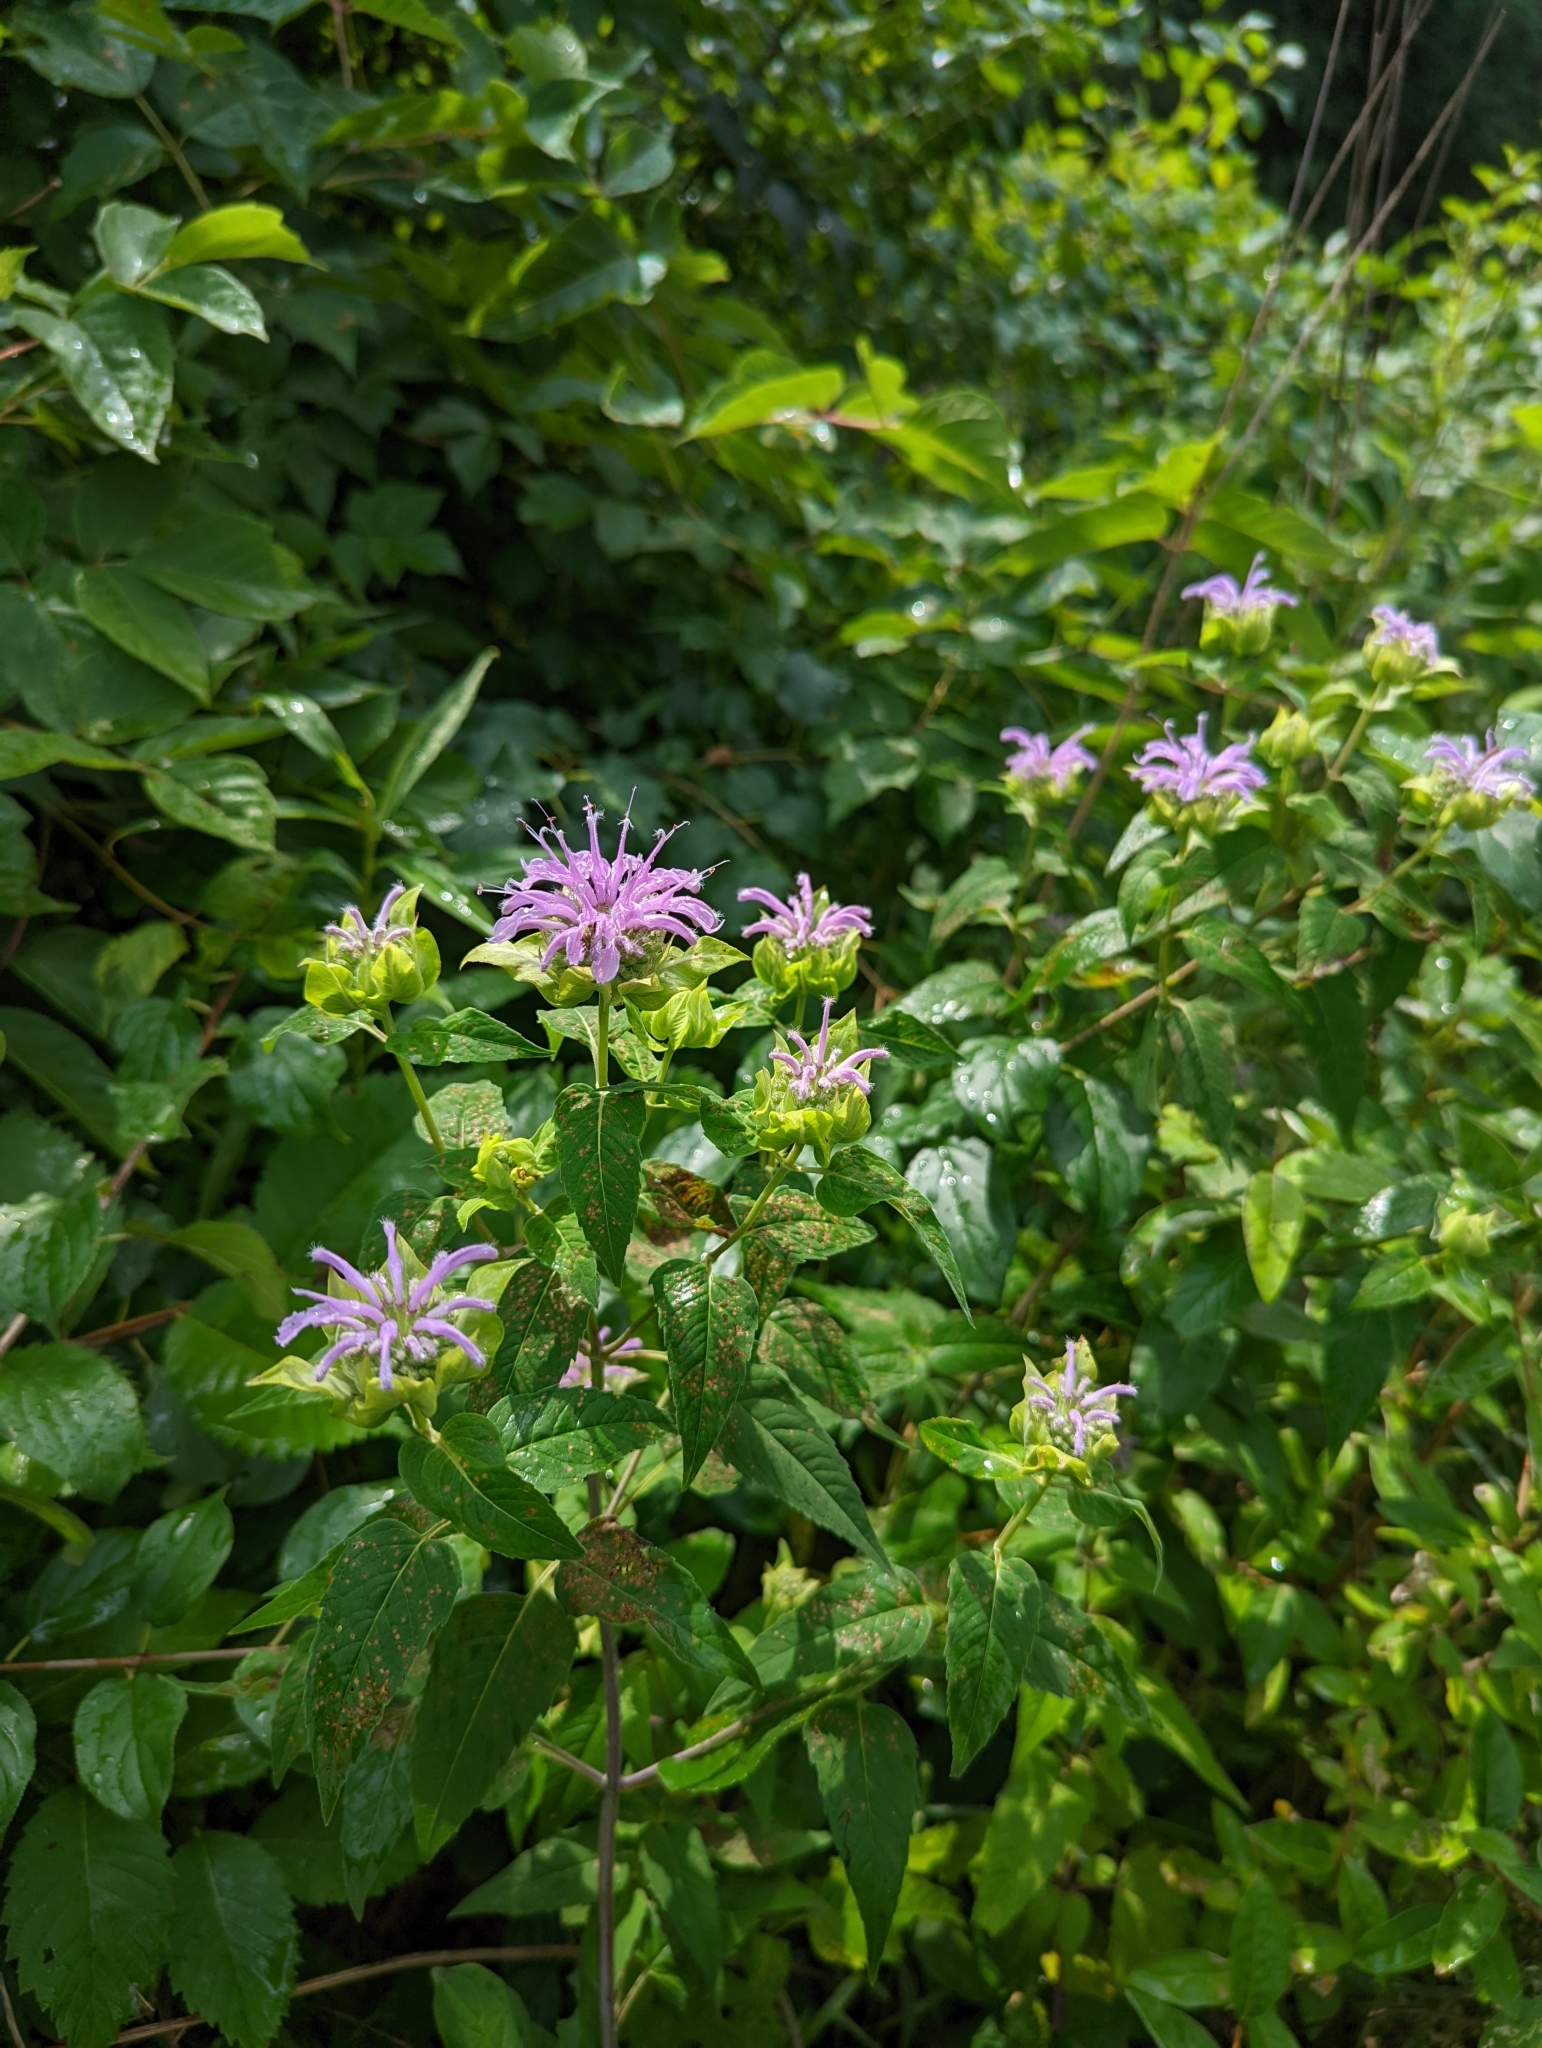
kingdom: Plantae
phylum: Tracheophyta
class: Magnoliopsida
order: Lamiales
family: Lamiaceae
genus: Monarda
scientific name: Monarda fistulosa
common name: Purple beebalm
